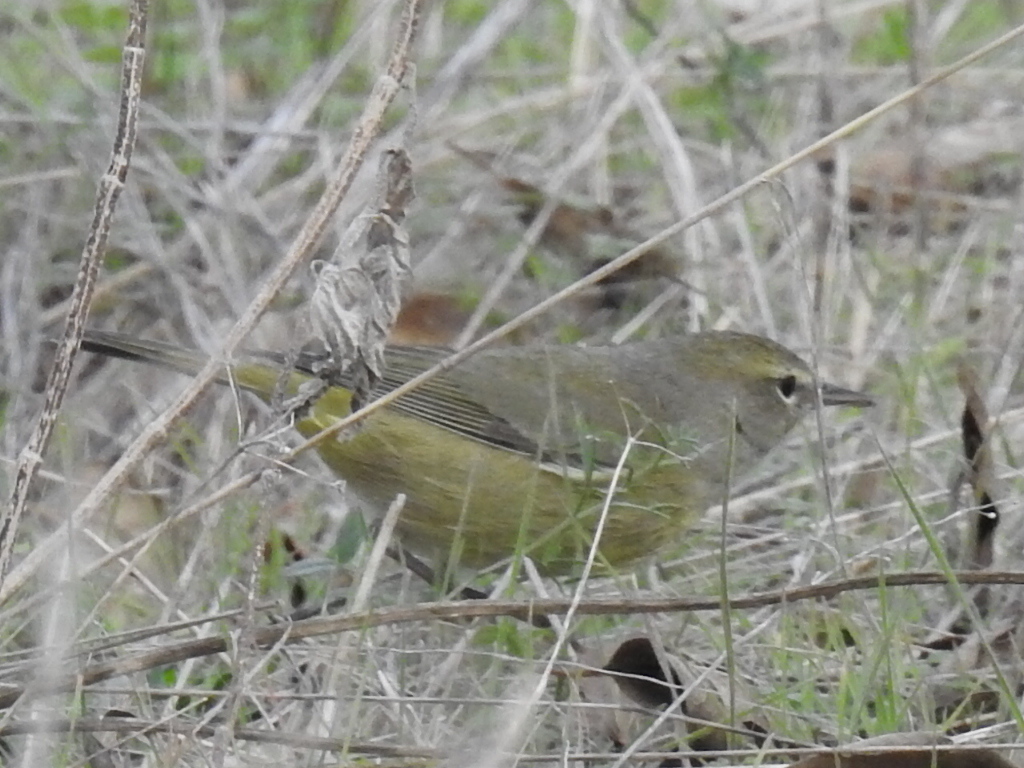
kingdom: Animalia
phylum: Chordata
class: Aves
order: Passeriformes
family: Parulidae
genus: Leiothlypis
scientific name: Leiothlypis celata
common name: Orange-crowned warbler
